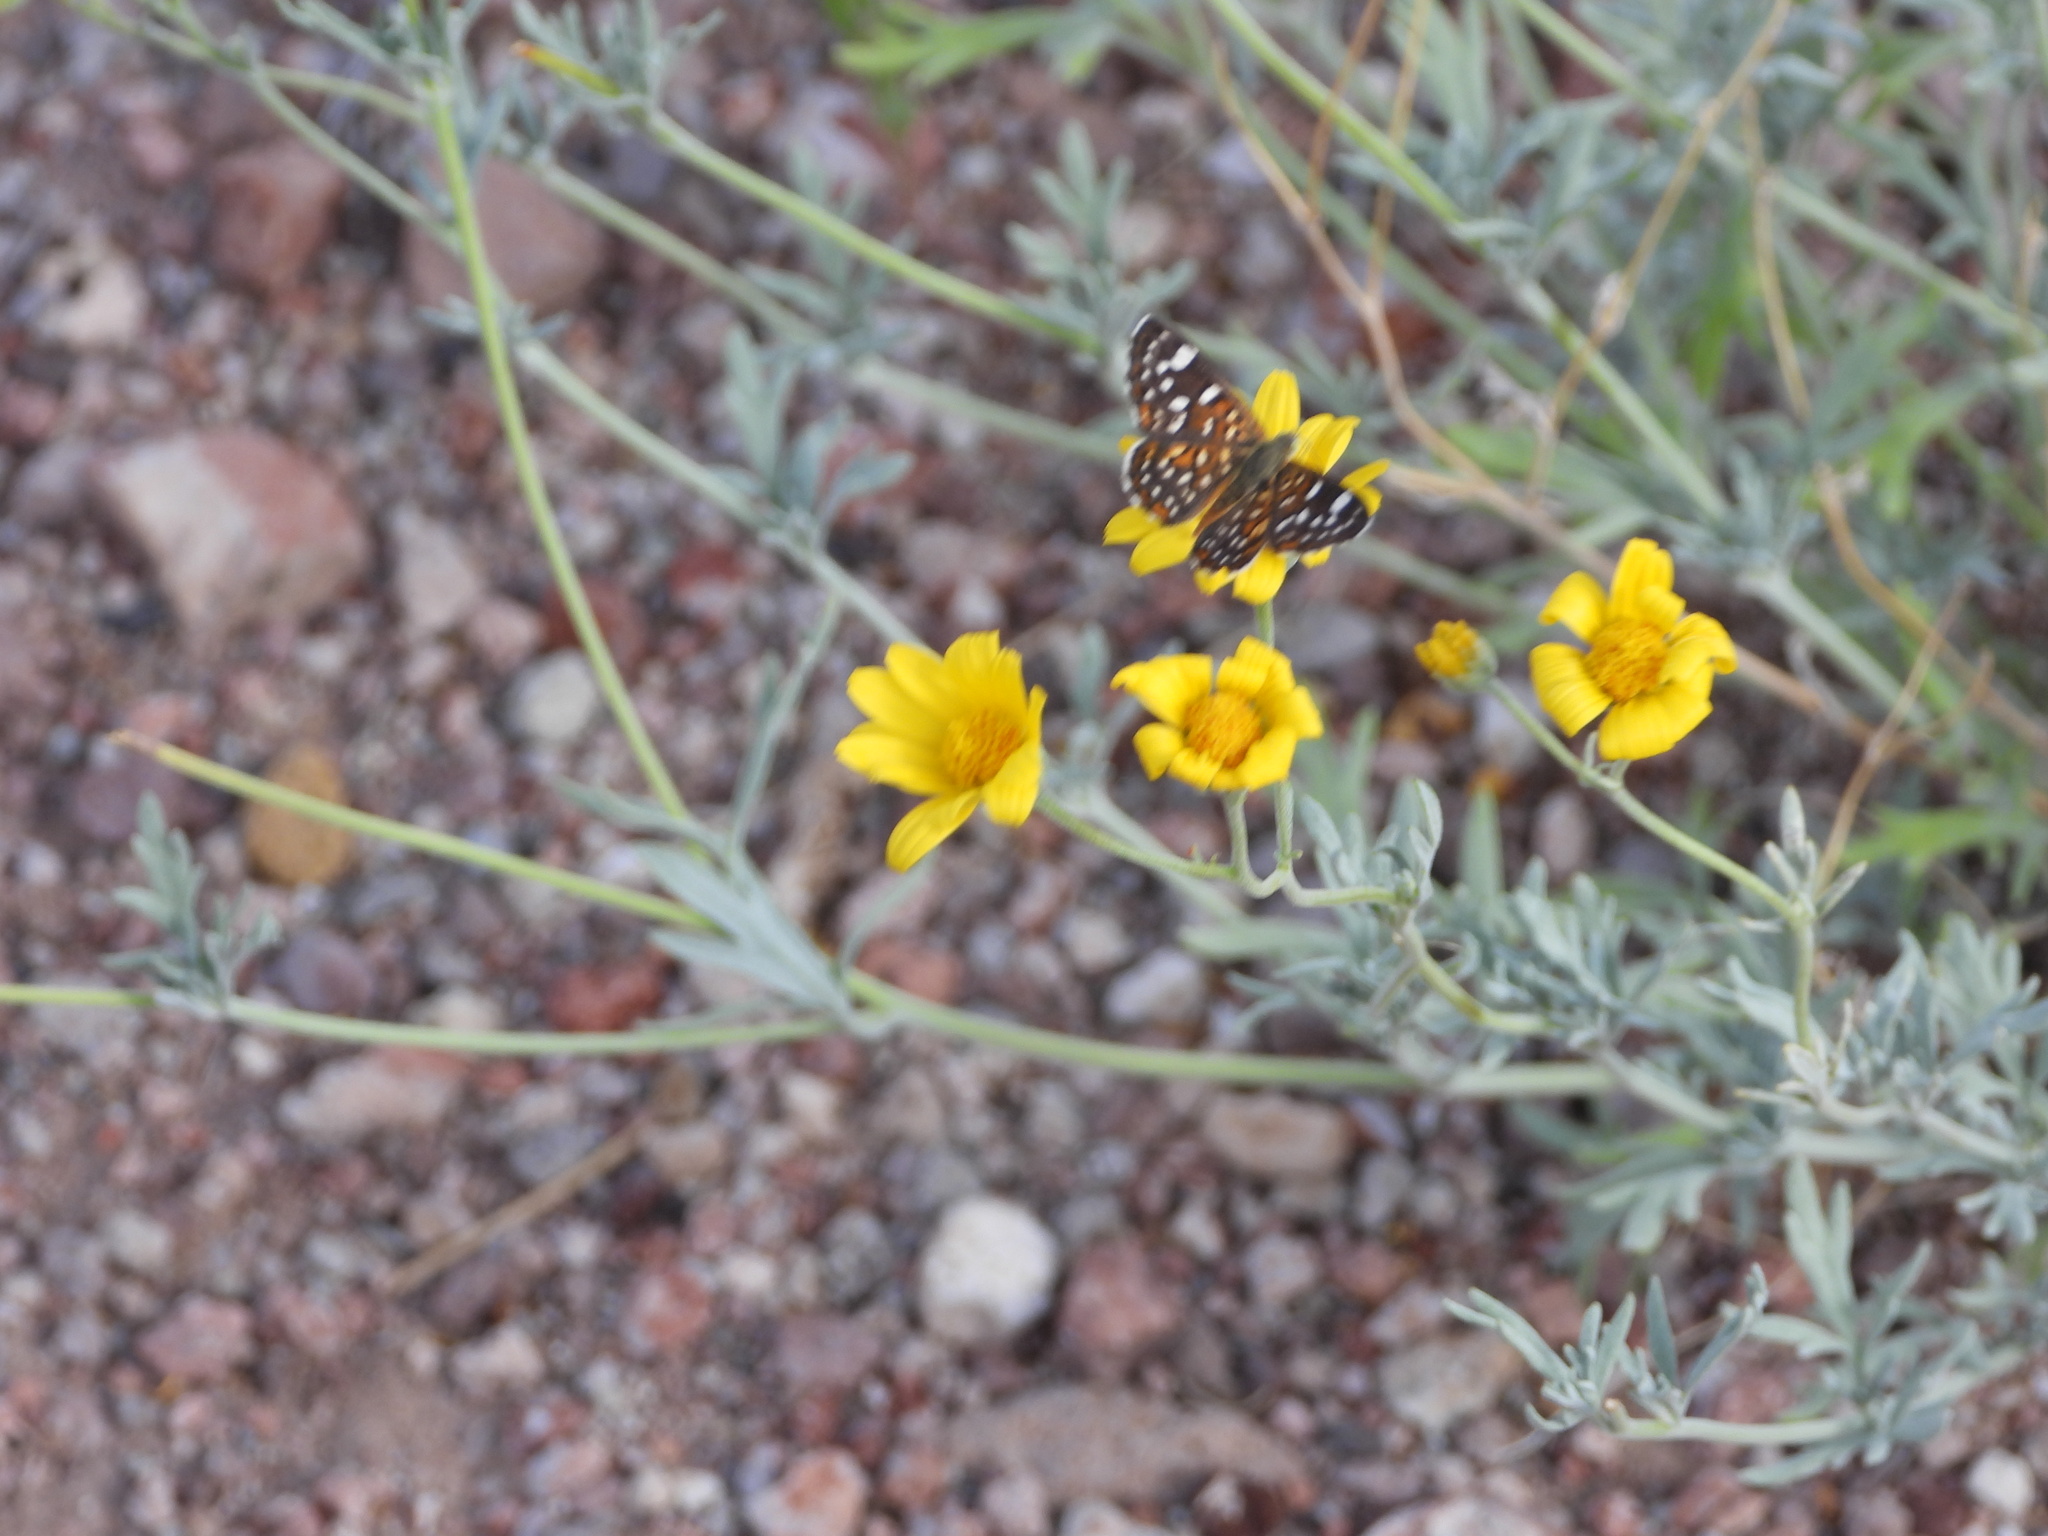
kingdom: Animalia
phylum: Arthropoda
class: Insecta
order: Lepidoptera
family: Riodinidae
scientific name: Riodinidae
